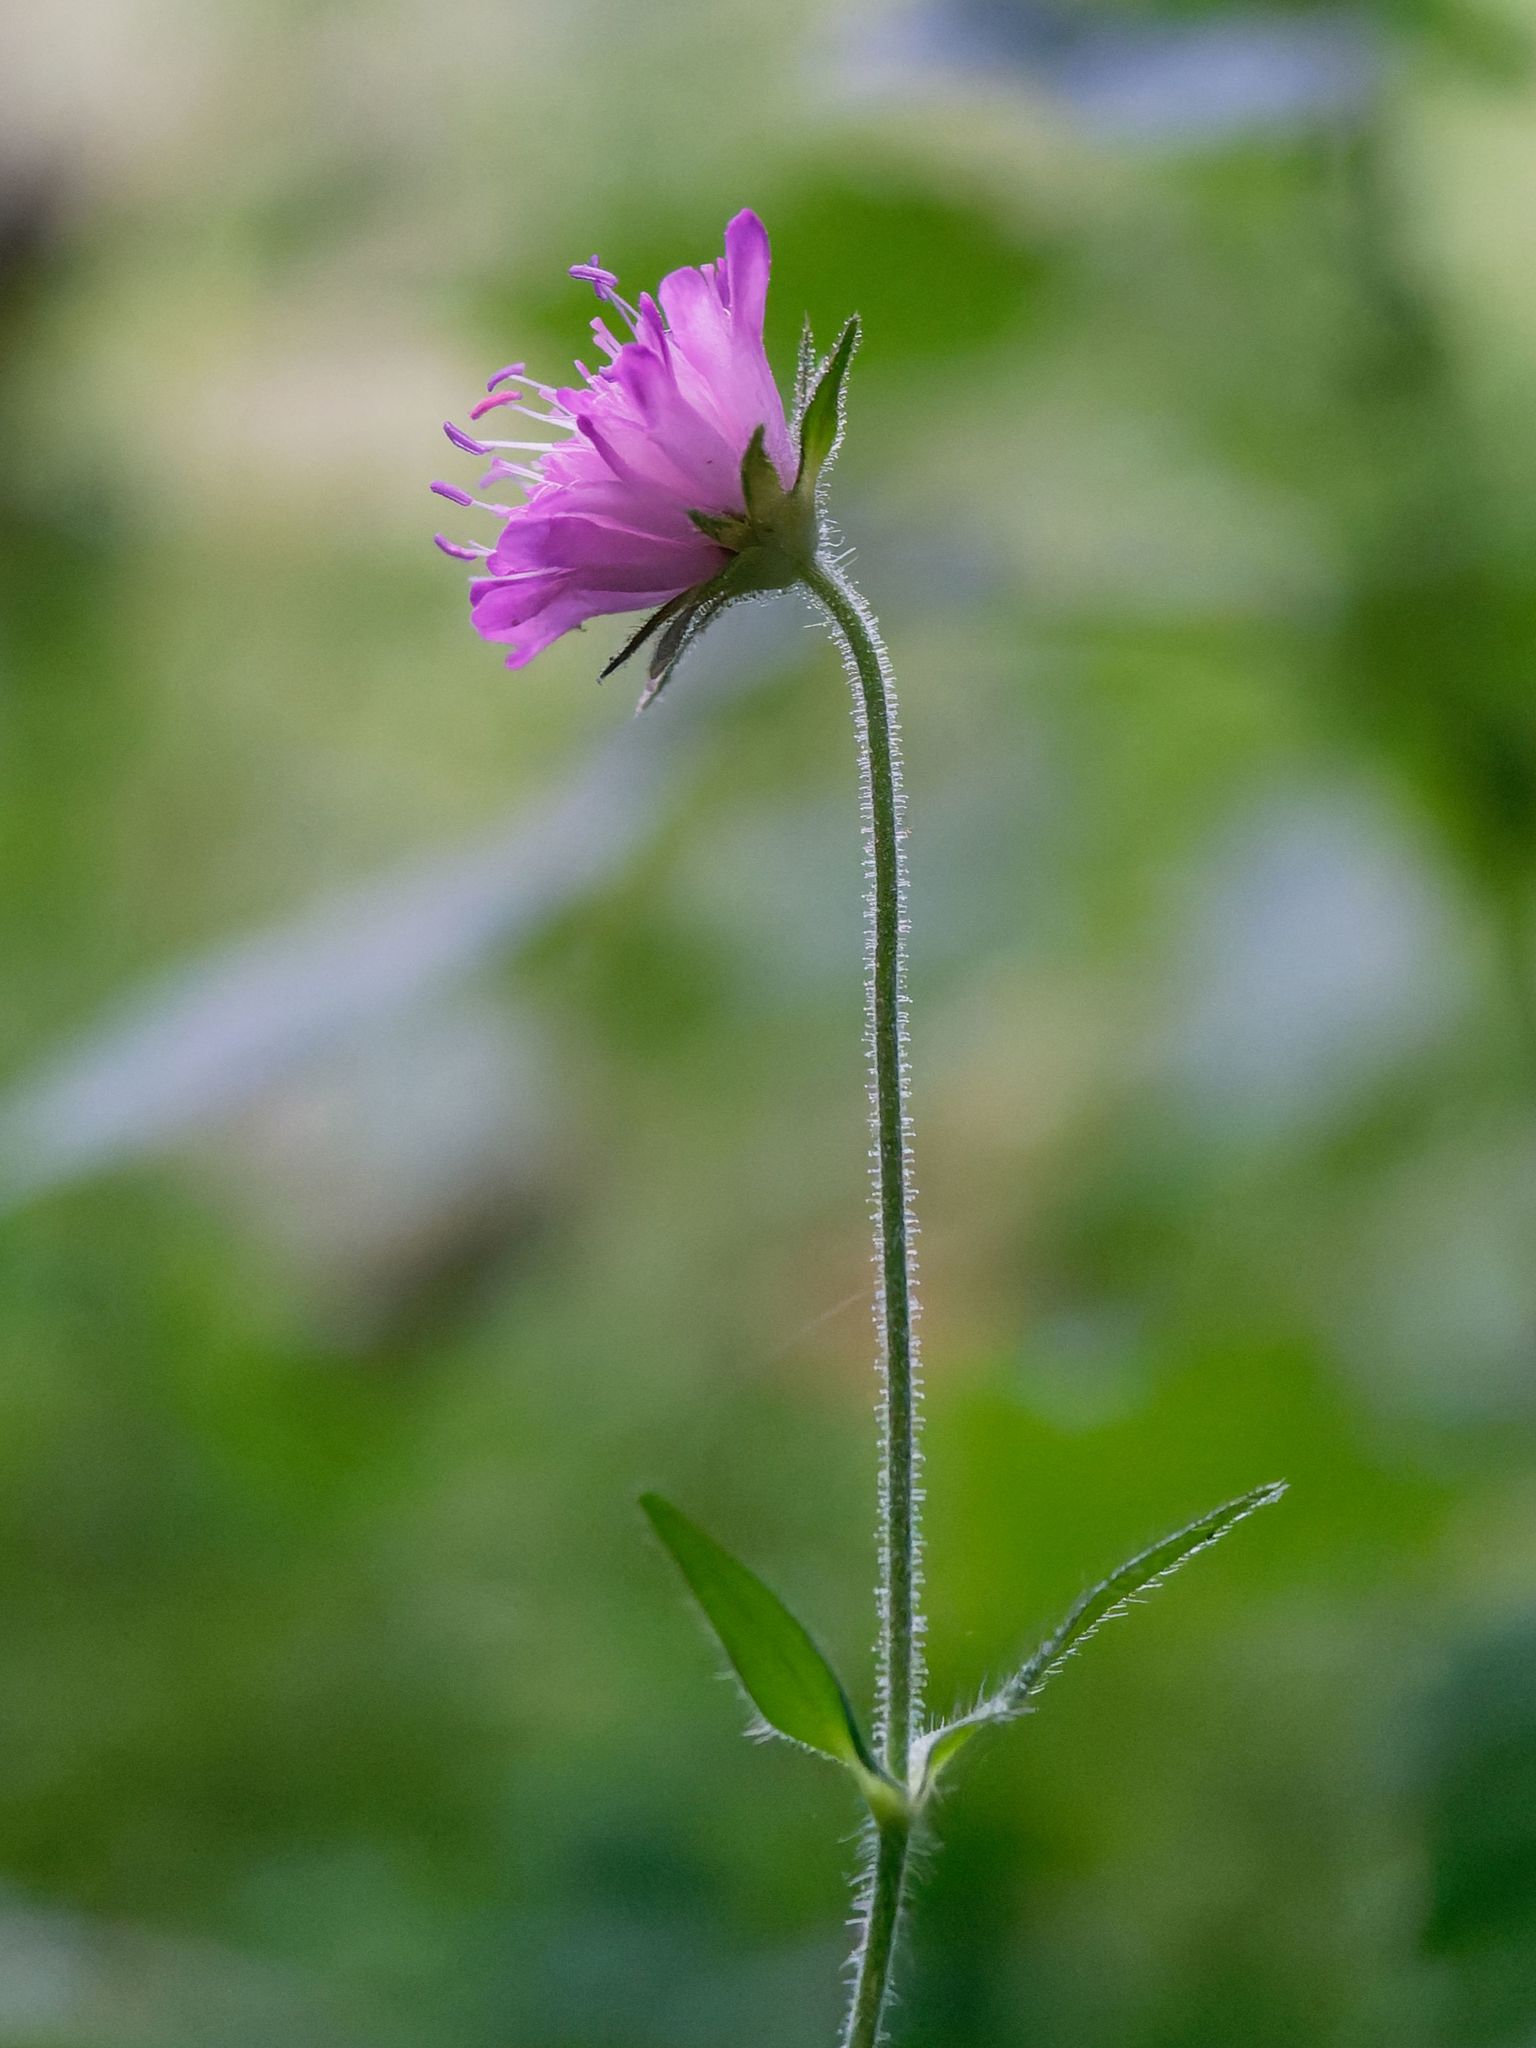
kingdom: Plantae
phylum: Tracheophyta
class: Magnoliopsida
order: Dipsacales
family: Caprifoliaceae
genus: Knautia
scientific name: Knautia drymeia
